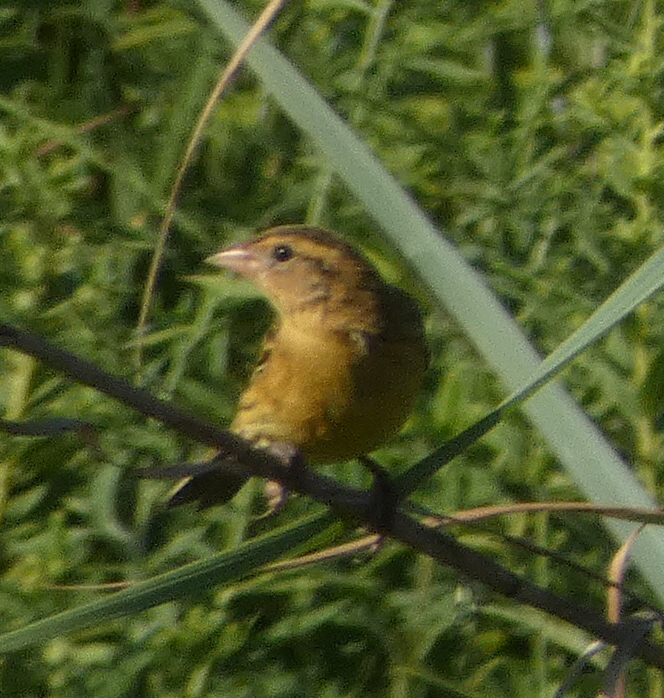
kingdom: Animalia
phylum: Chordata
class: Aves
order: Passeriformes
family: Icteridae
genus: Dolichonyx
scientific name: Dolichonyx oryzivorus
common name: Bobolink
